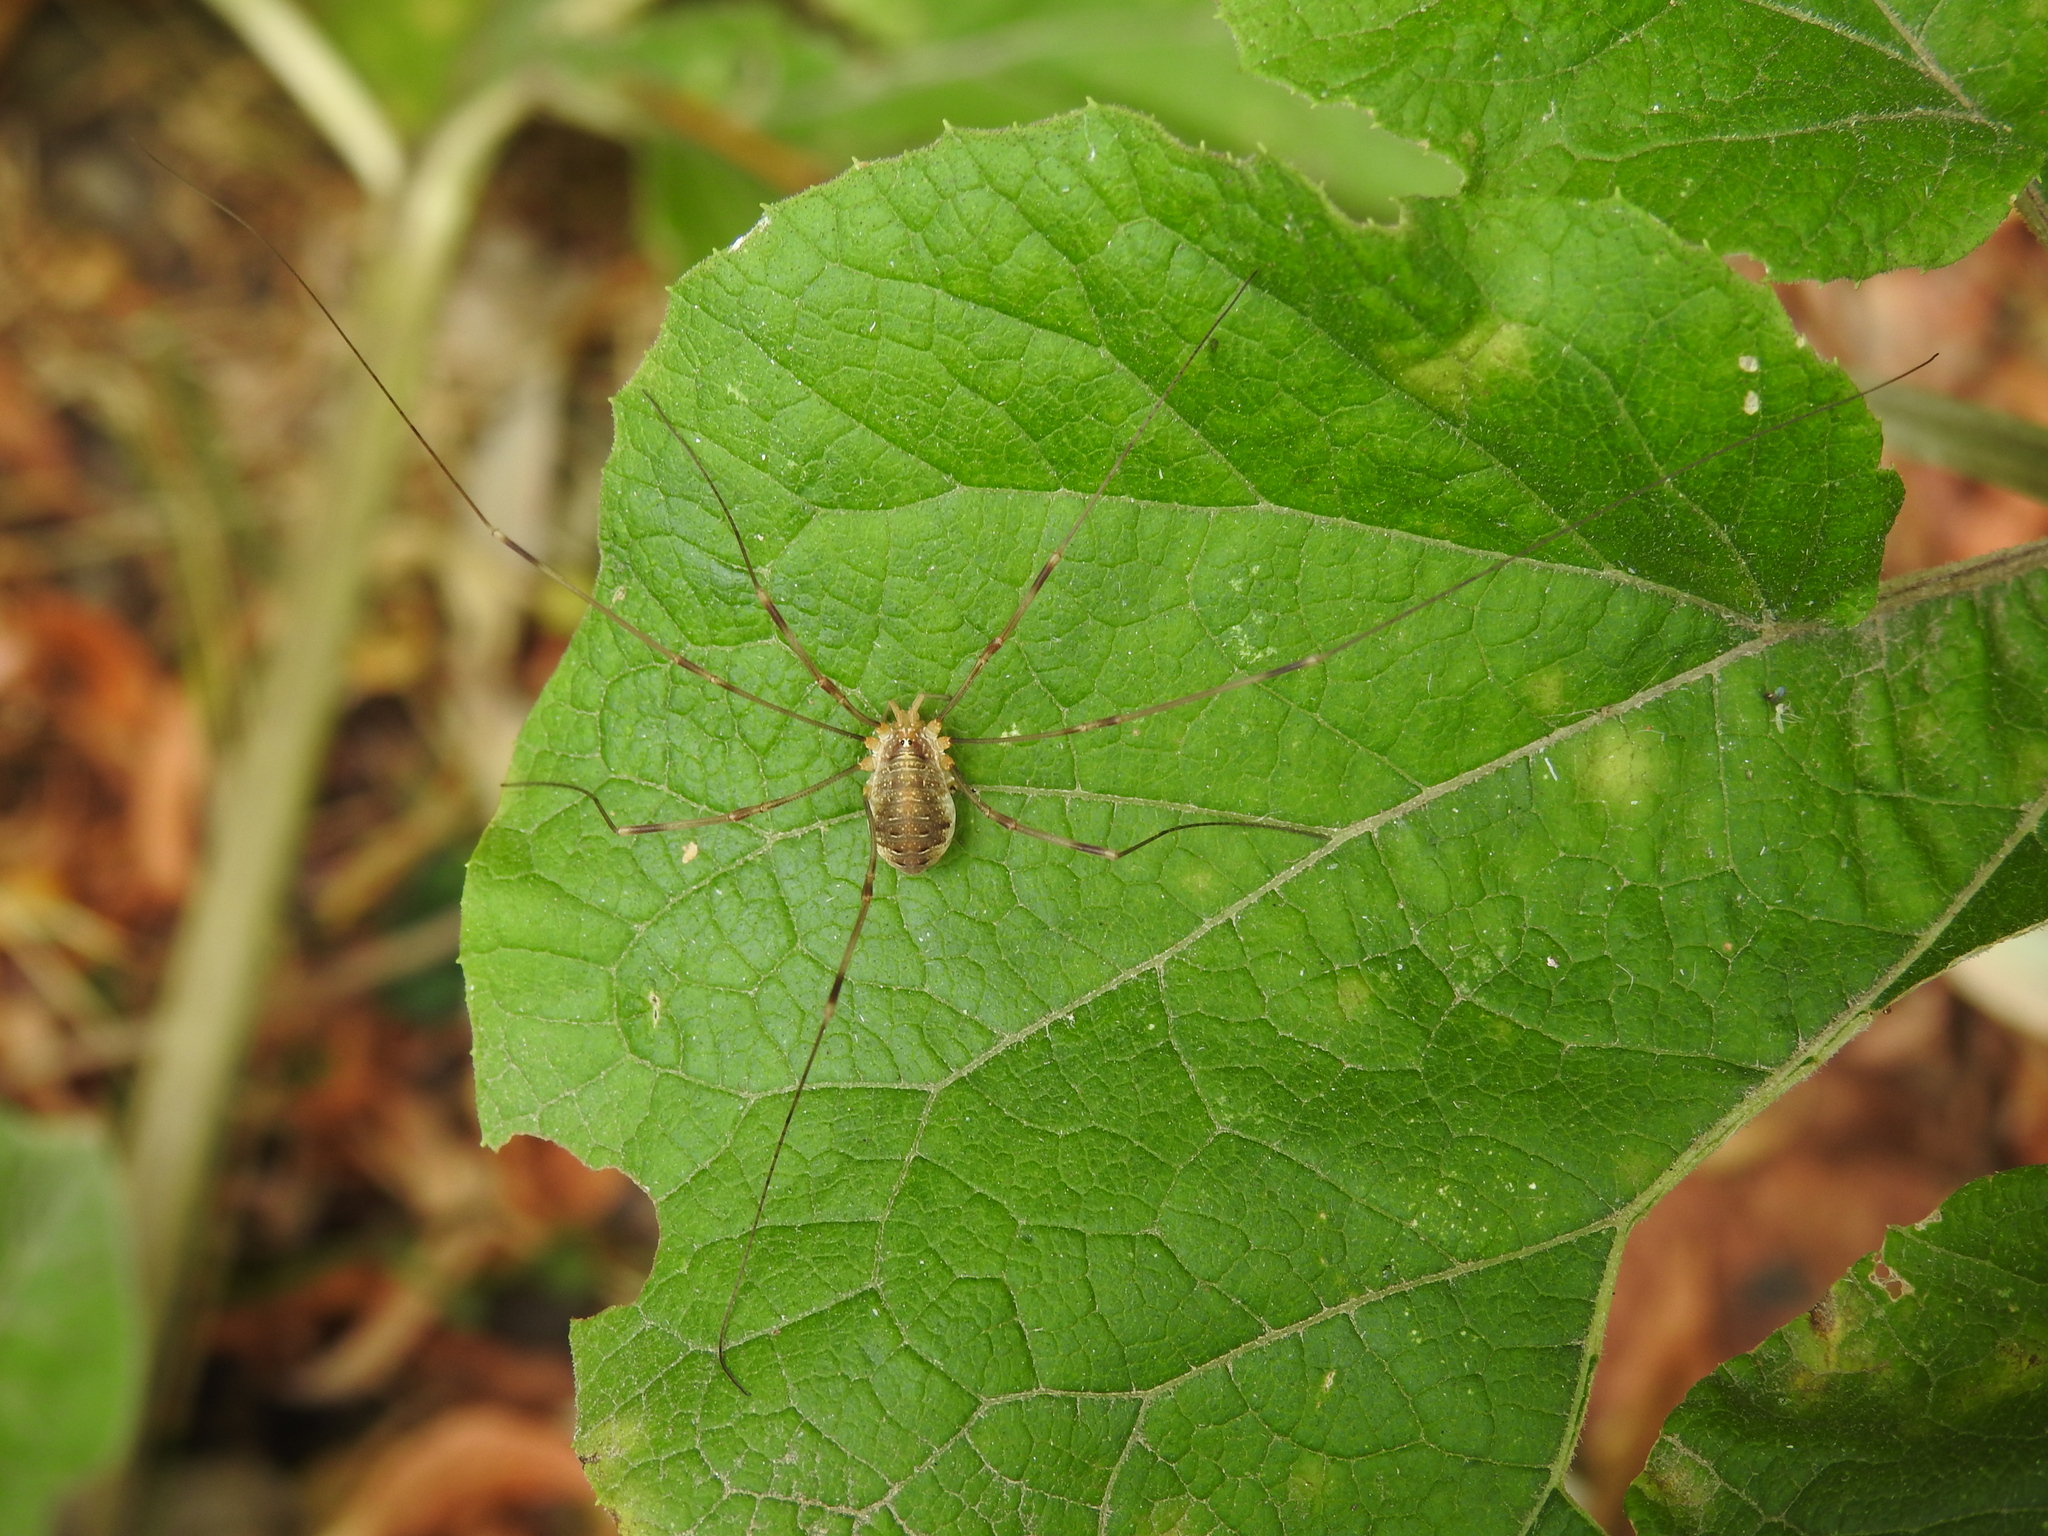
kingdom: Animalia
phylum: Arthropoda
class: Arachnida
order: Opiliones
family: Phalangiidae
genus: Opilio
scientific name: Opilio canestrinii
